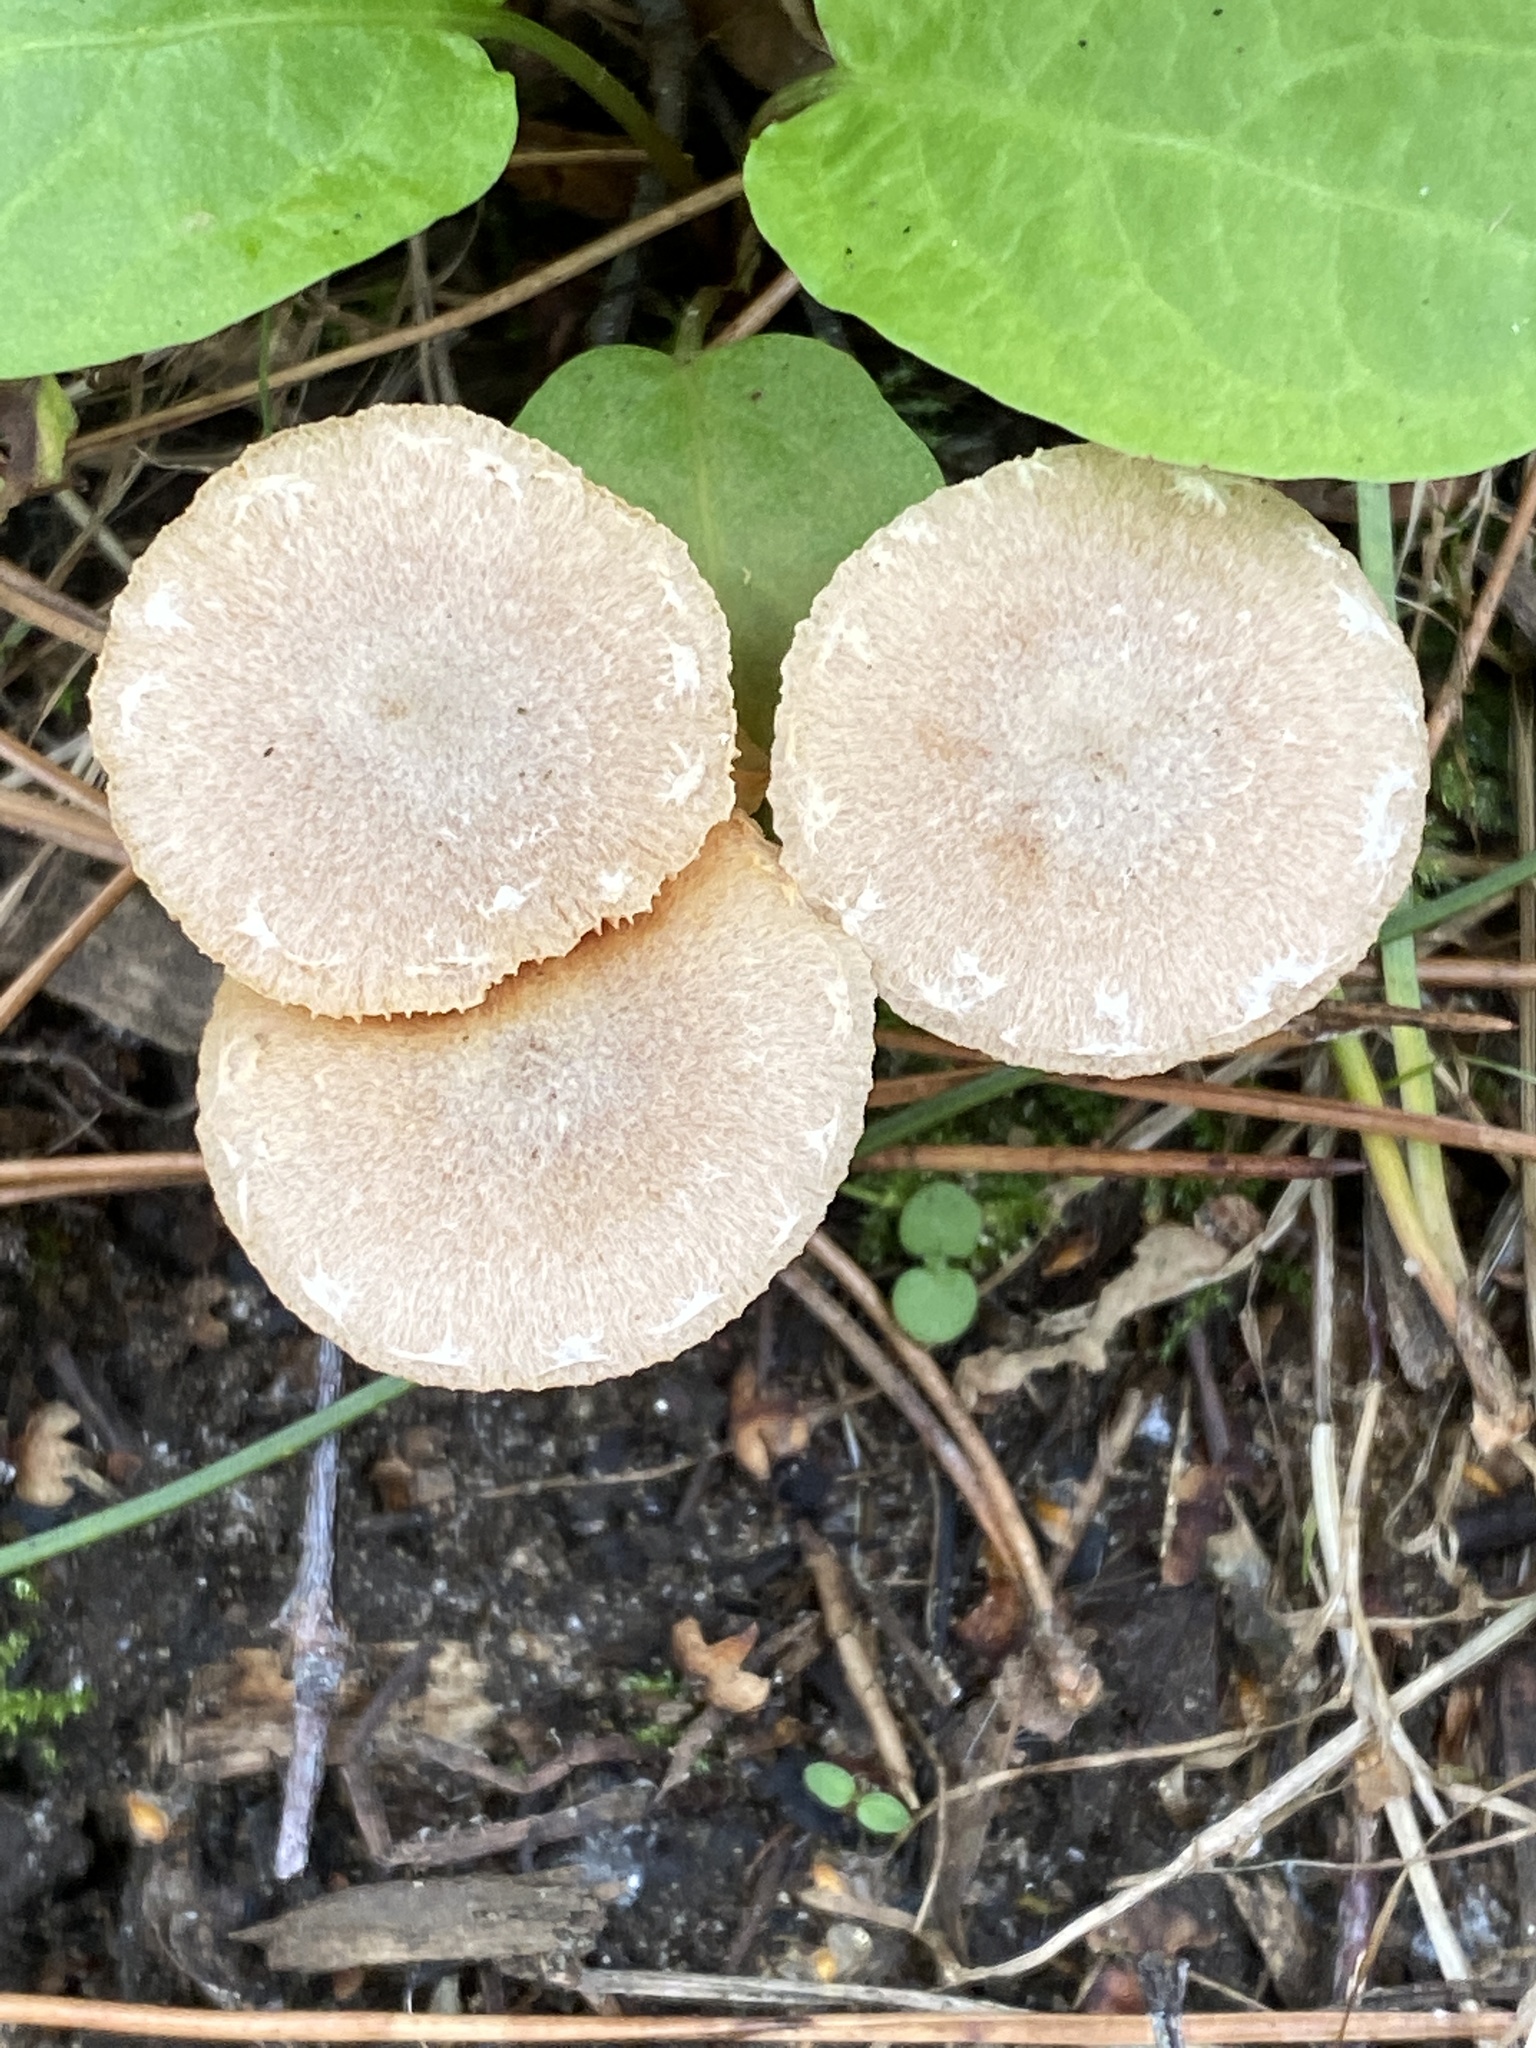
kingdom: Fungi
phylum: Basidiomycota
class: Agaricomycetes
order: Agaricales
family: Tubariaceae
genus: Tubaria
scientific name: Tubaria furfuracea
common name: Scurfy twiglet
